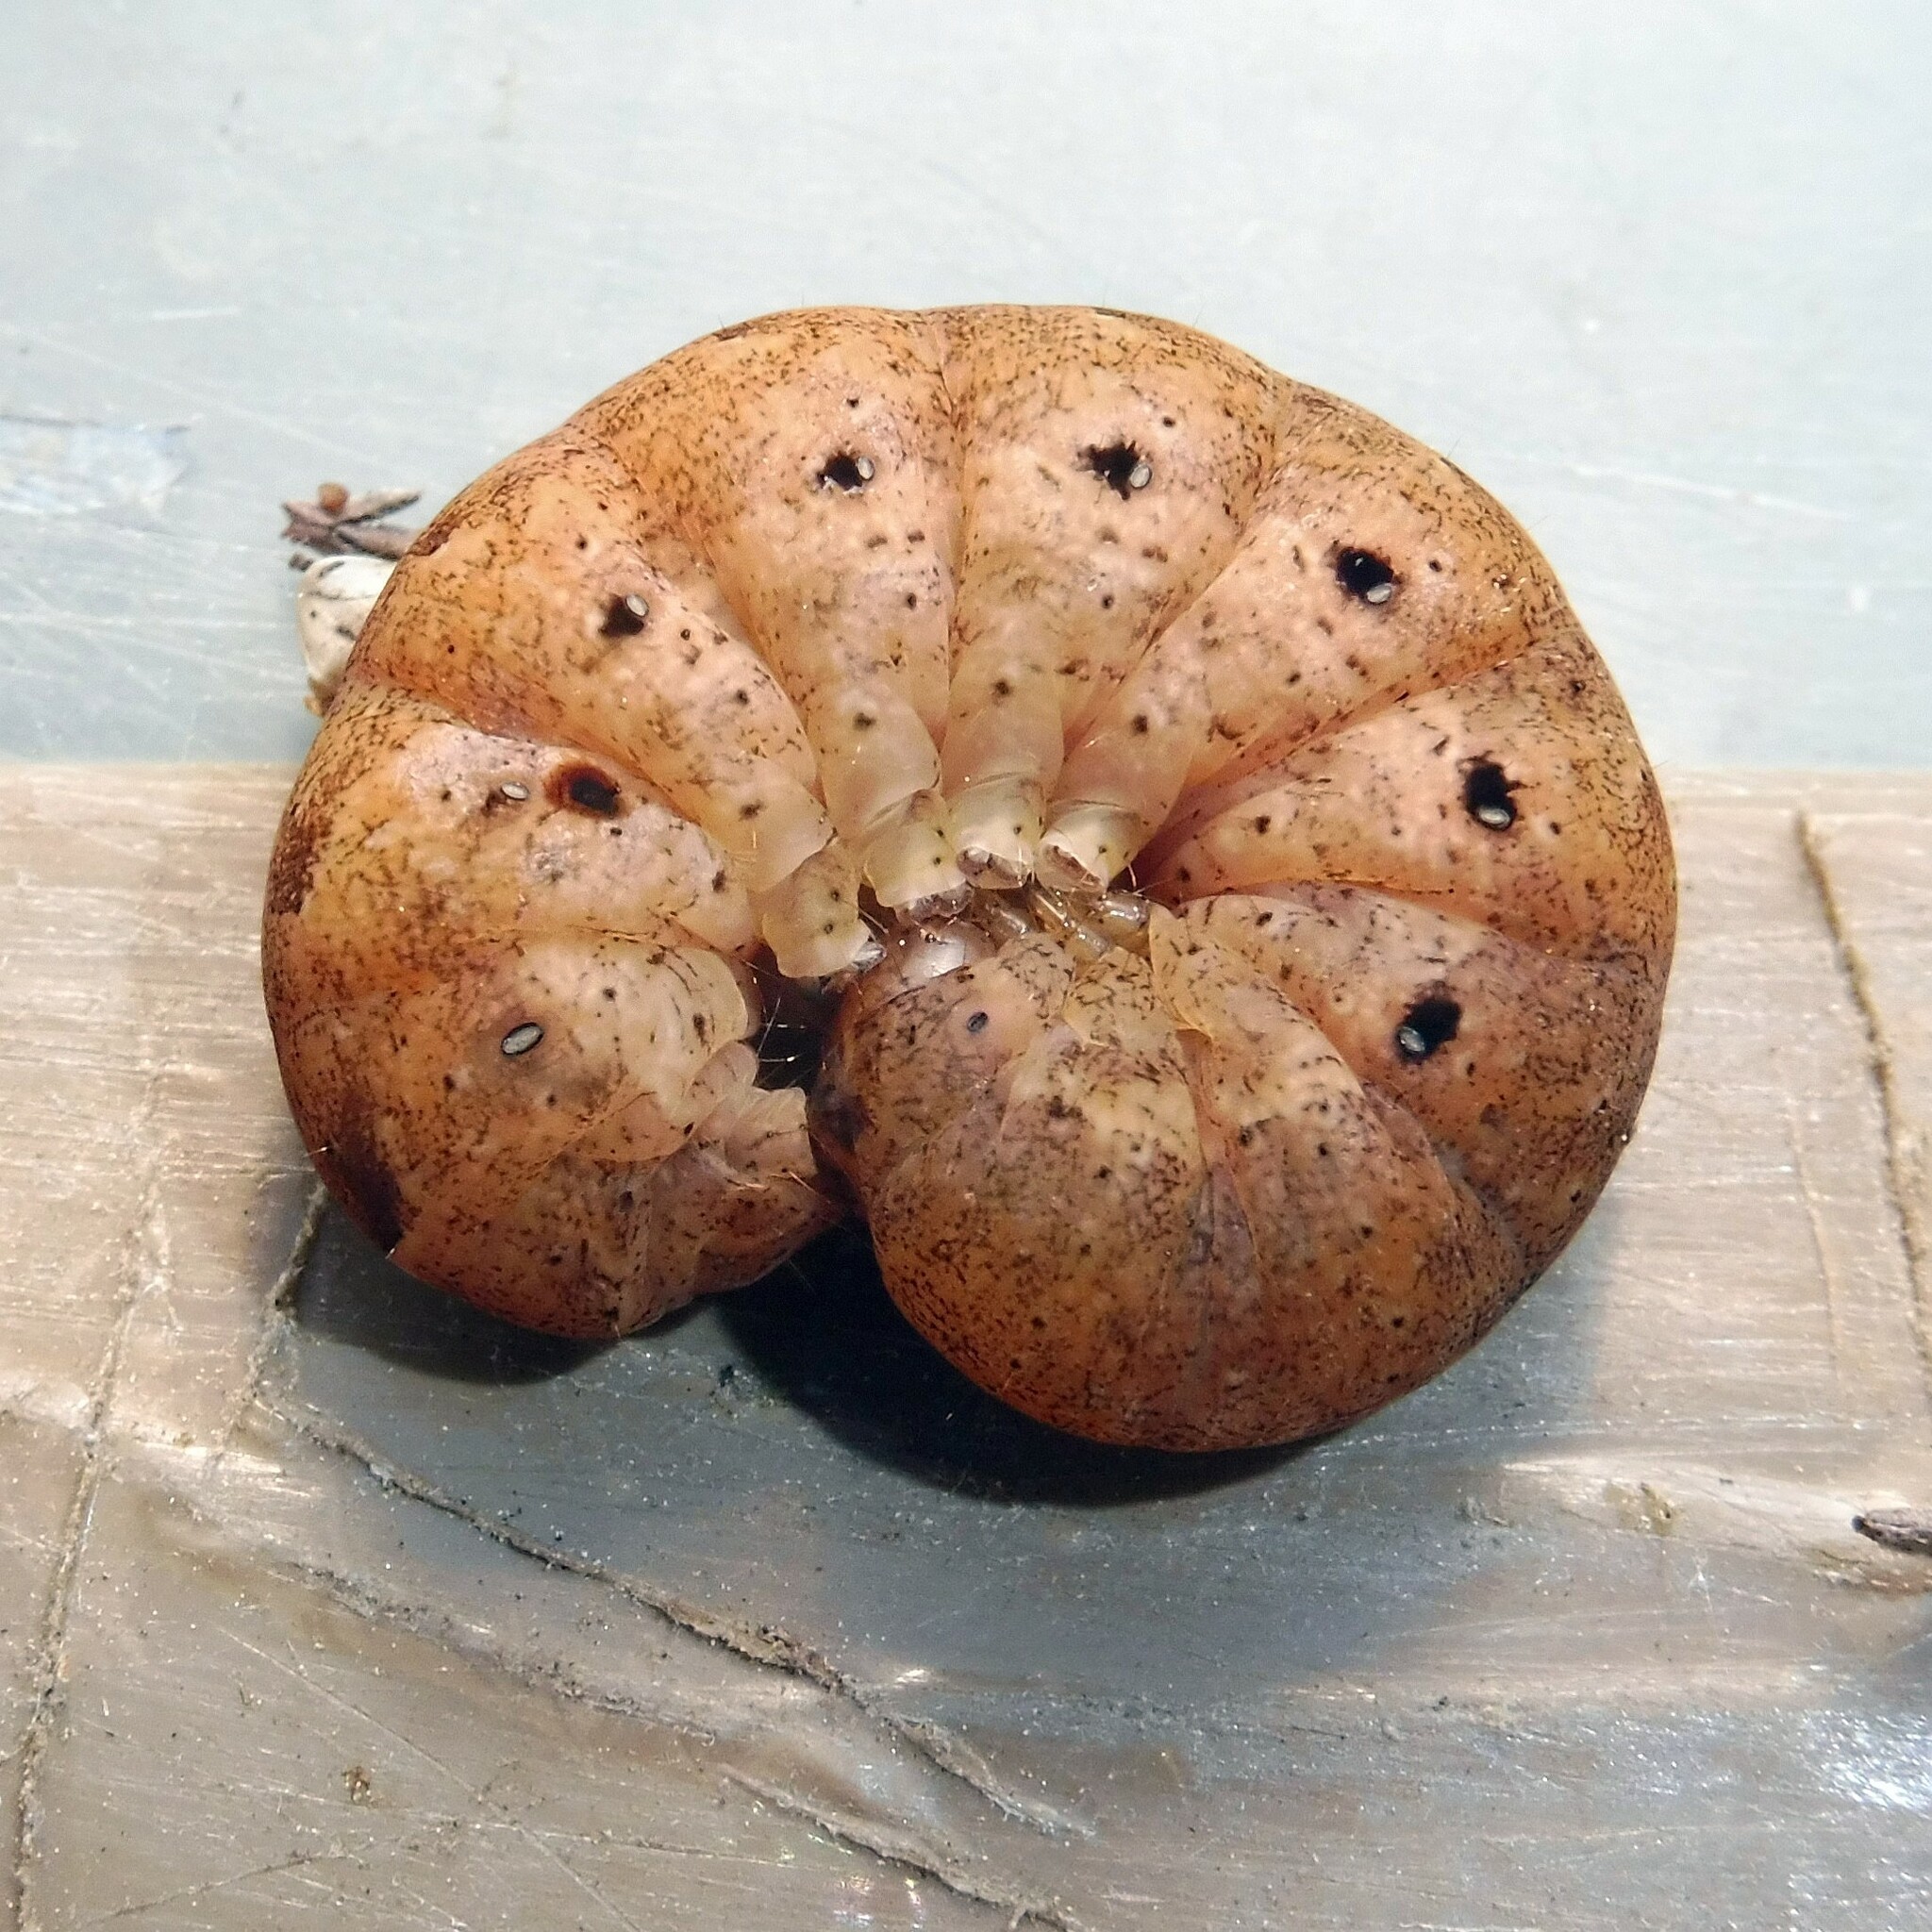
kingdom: Animalia
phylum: Arthropoda
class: Insecta
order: Lepidoptera
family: Noctuidae
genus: Noctua
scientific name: Noctua fimbriata
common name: Broad-bordered yellow underwing
